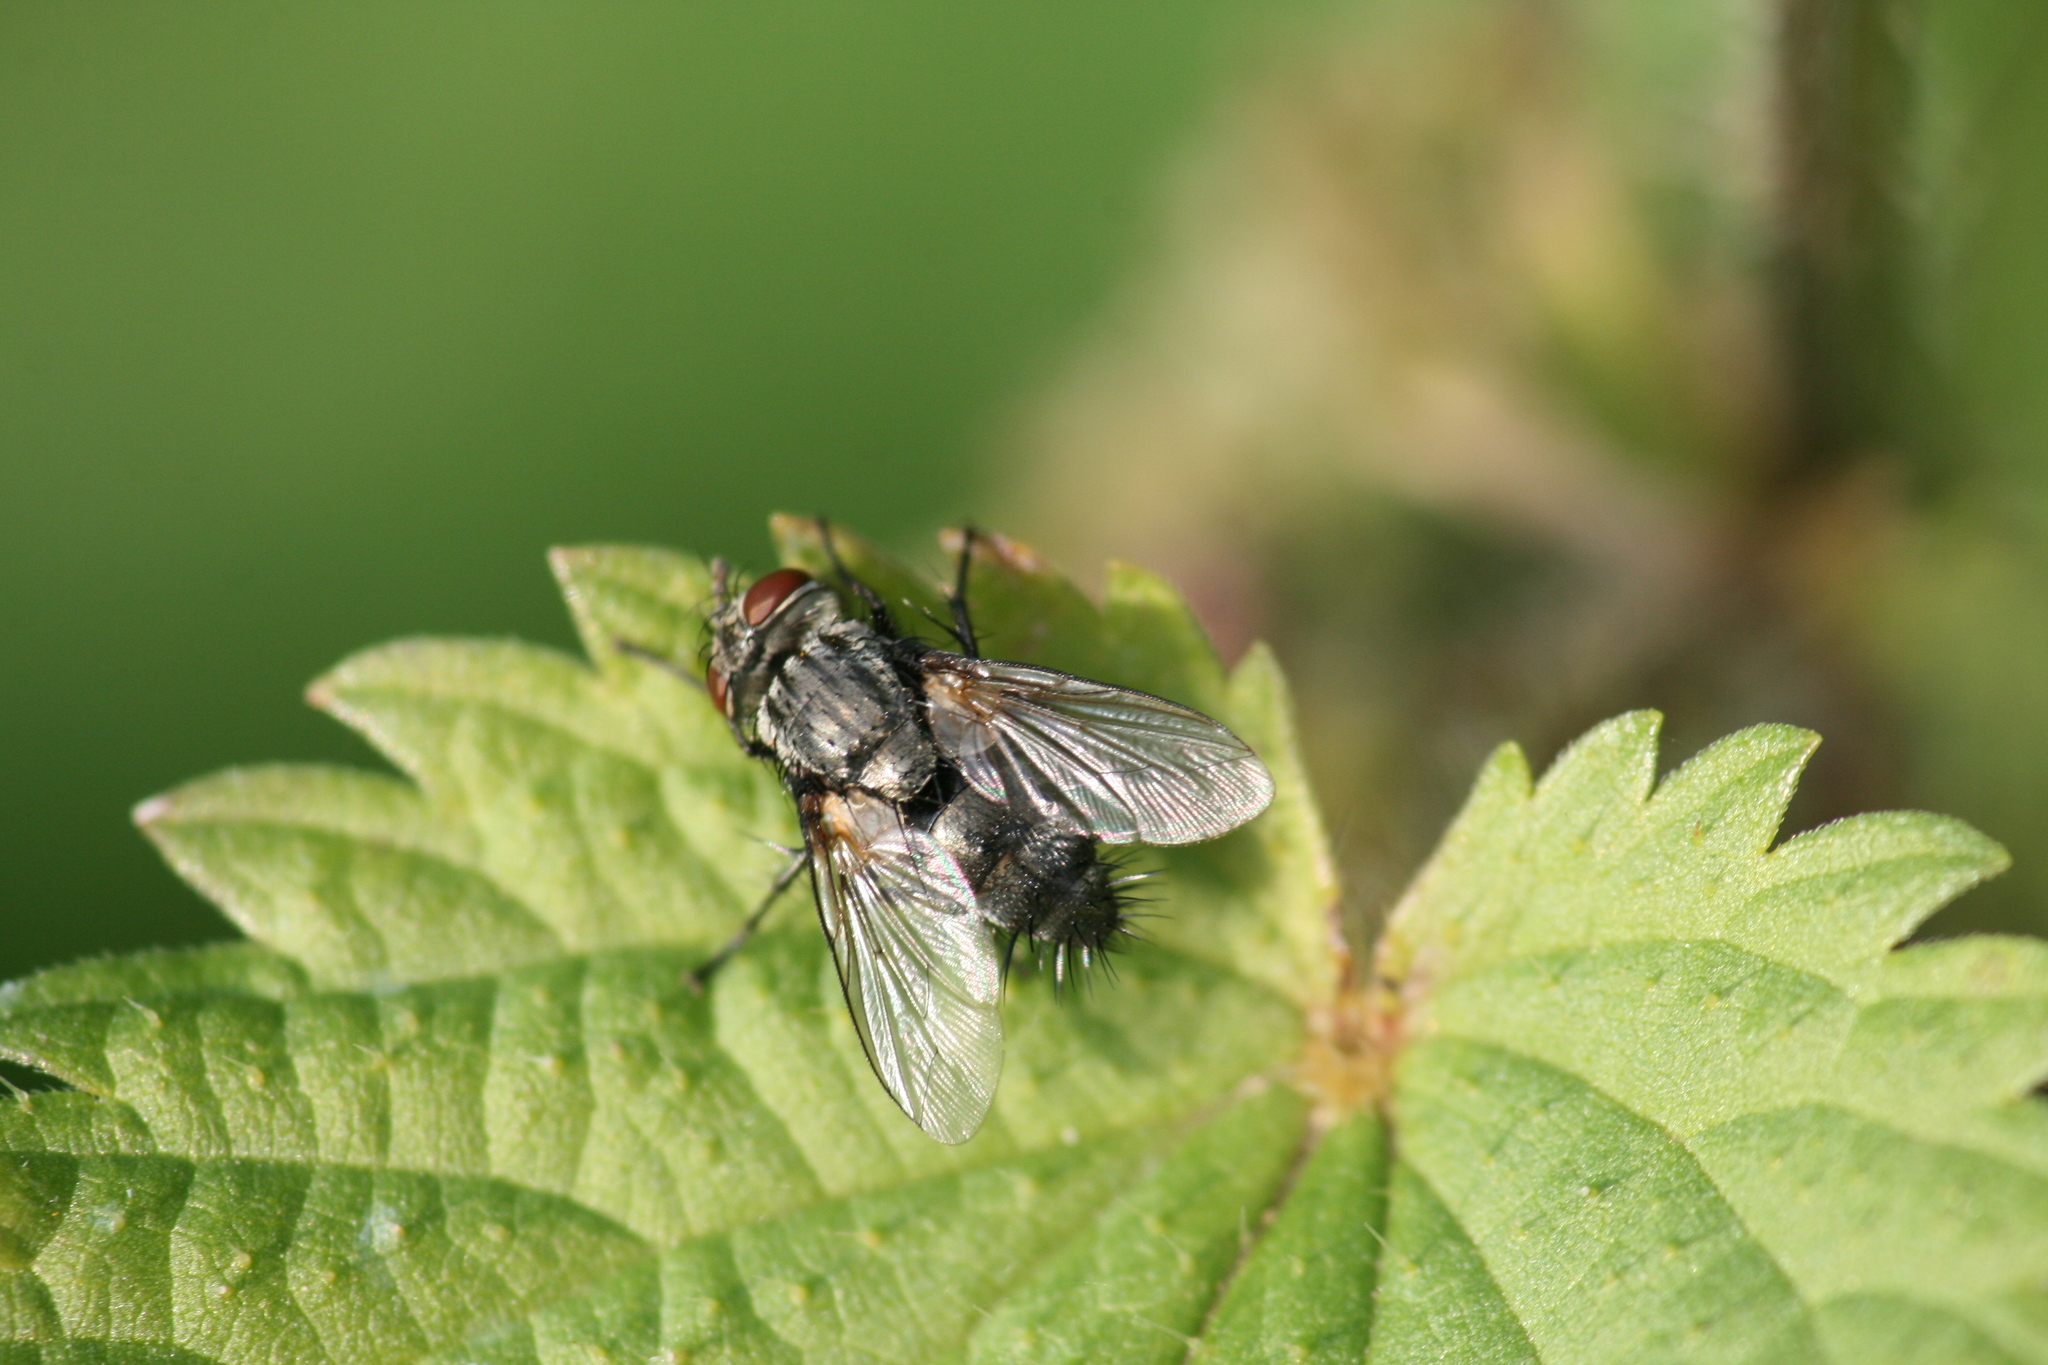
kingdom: Animalia
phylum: Arthropoda
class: Insecta
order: Diptera
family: Tachinidae
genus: Voria
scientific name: Voria ruralis
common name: Parasitic fly
